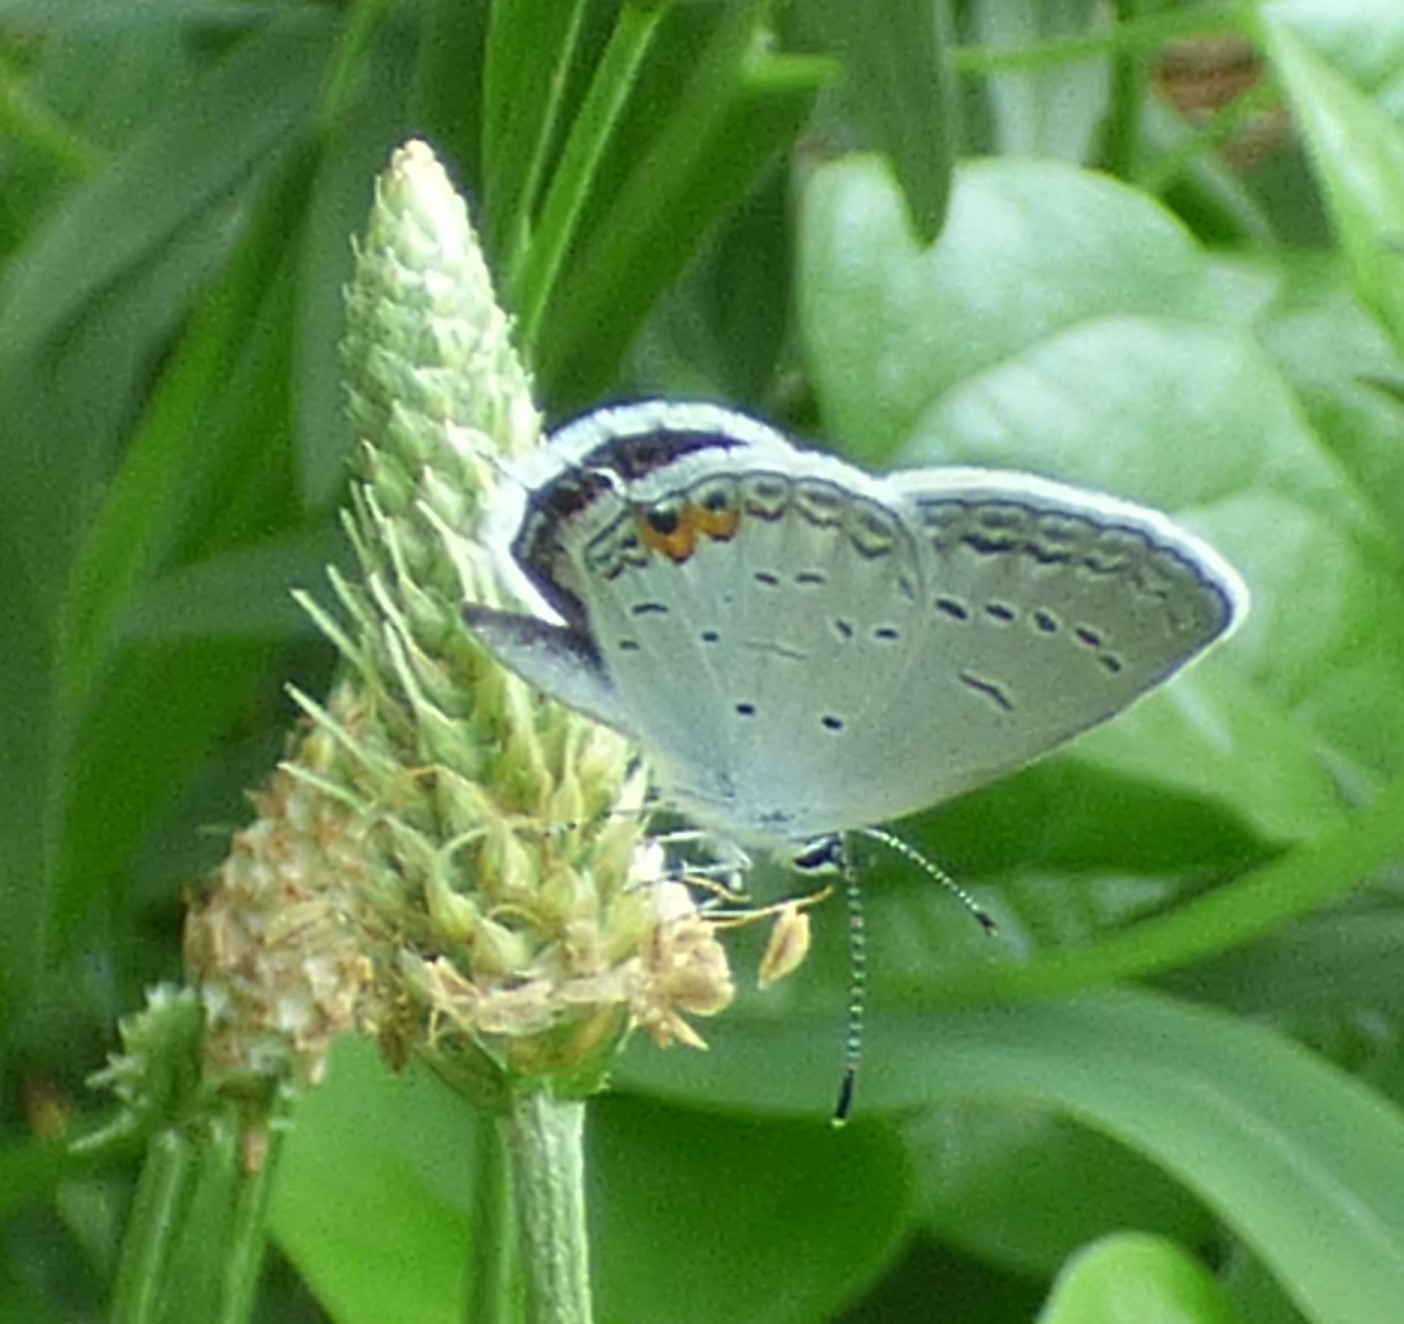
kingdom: Animalia
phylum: Arthropoda
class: Insecta
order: Lepidoptera
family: Lycaenidae
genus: Elkalyce
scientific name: Elkalyce comyntas
